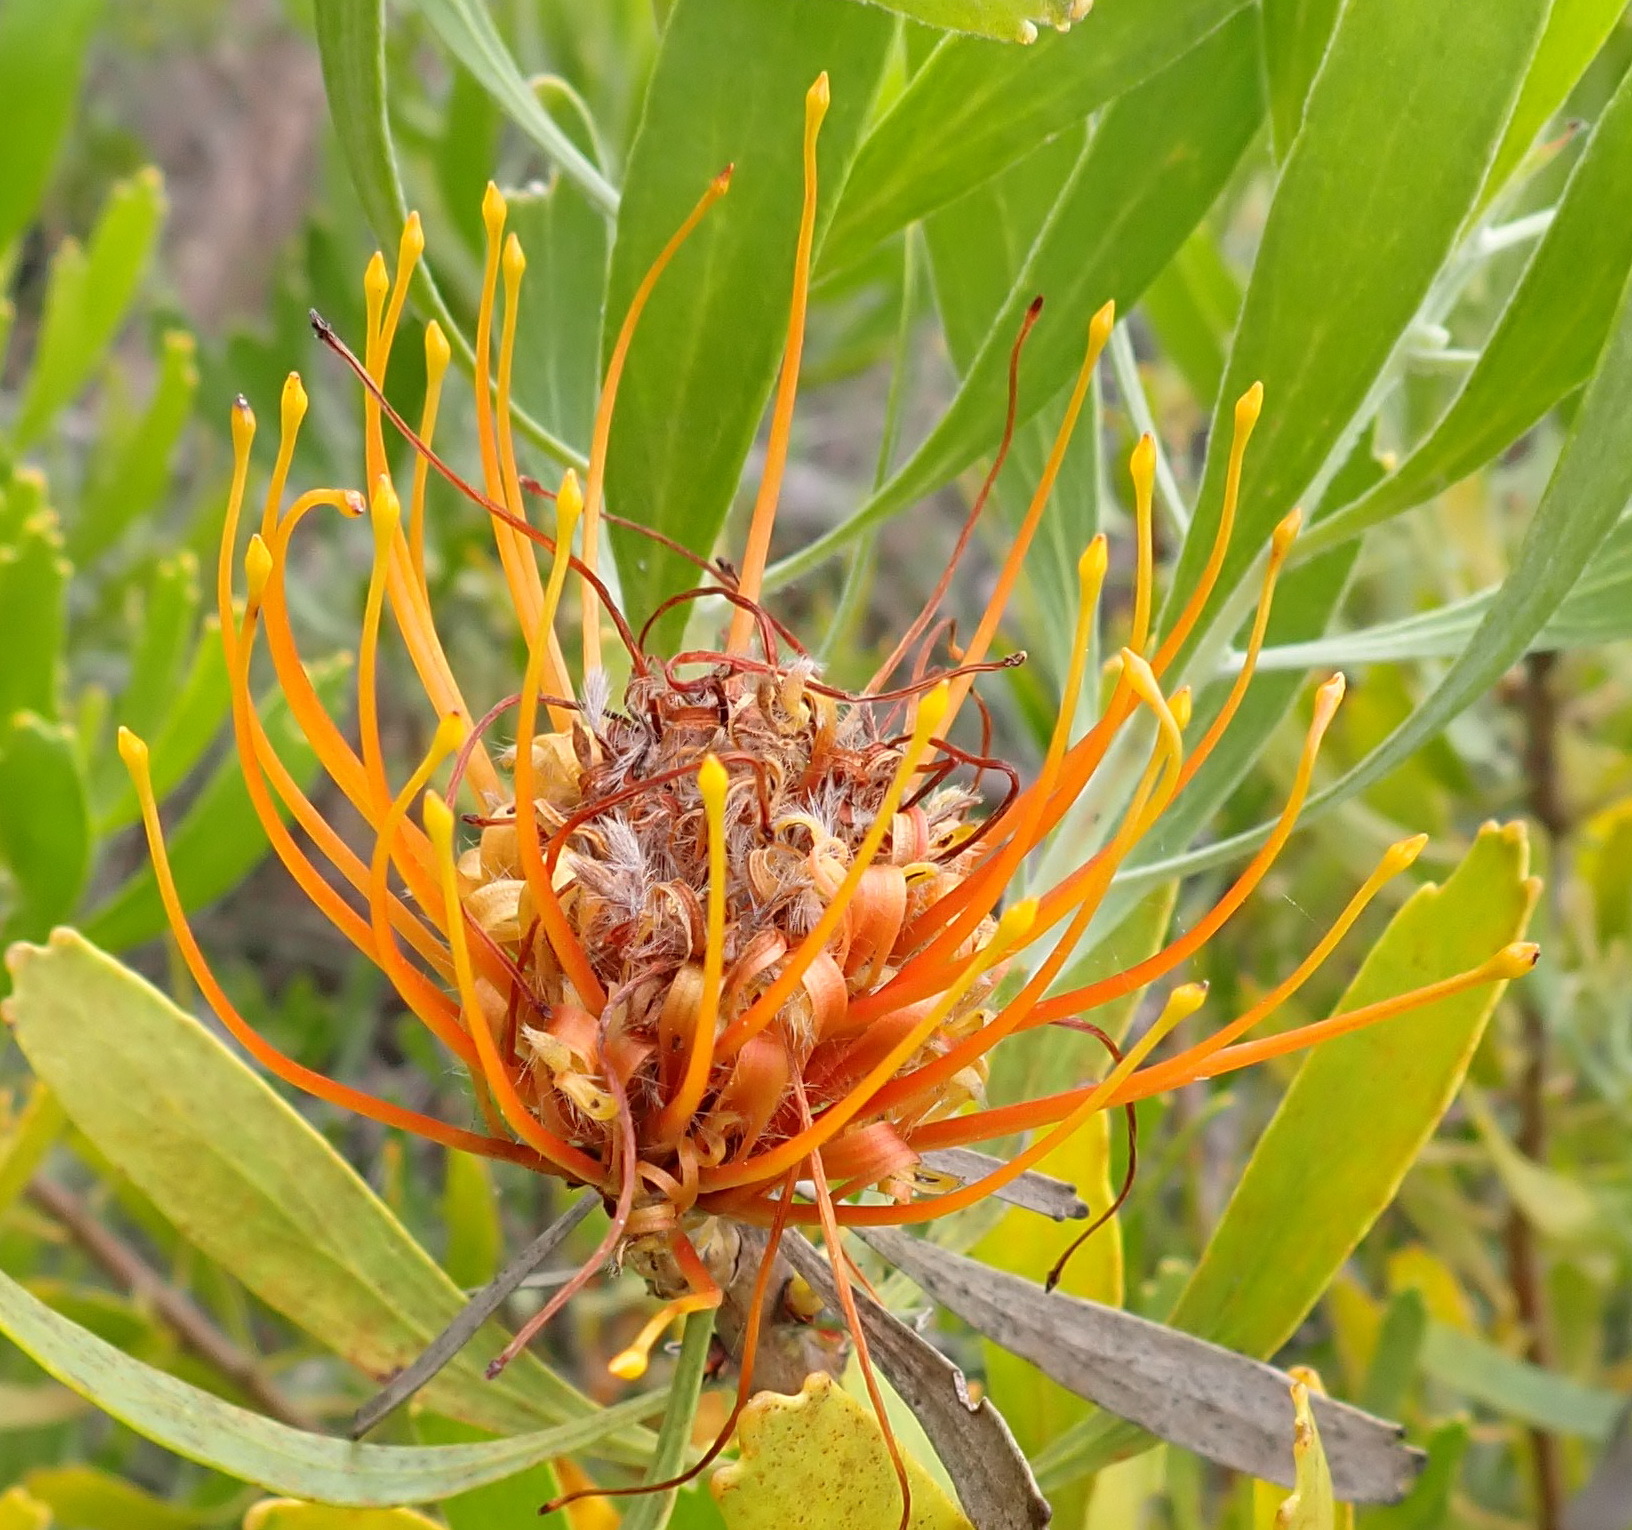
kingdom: Plantae
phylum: Tracheophyta
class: Magnoliopsida
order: Proteales
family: Proteaceae
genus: Leucospermum
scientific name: Leucospermum cuneiforme
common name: Common pincushion
